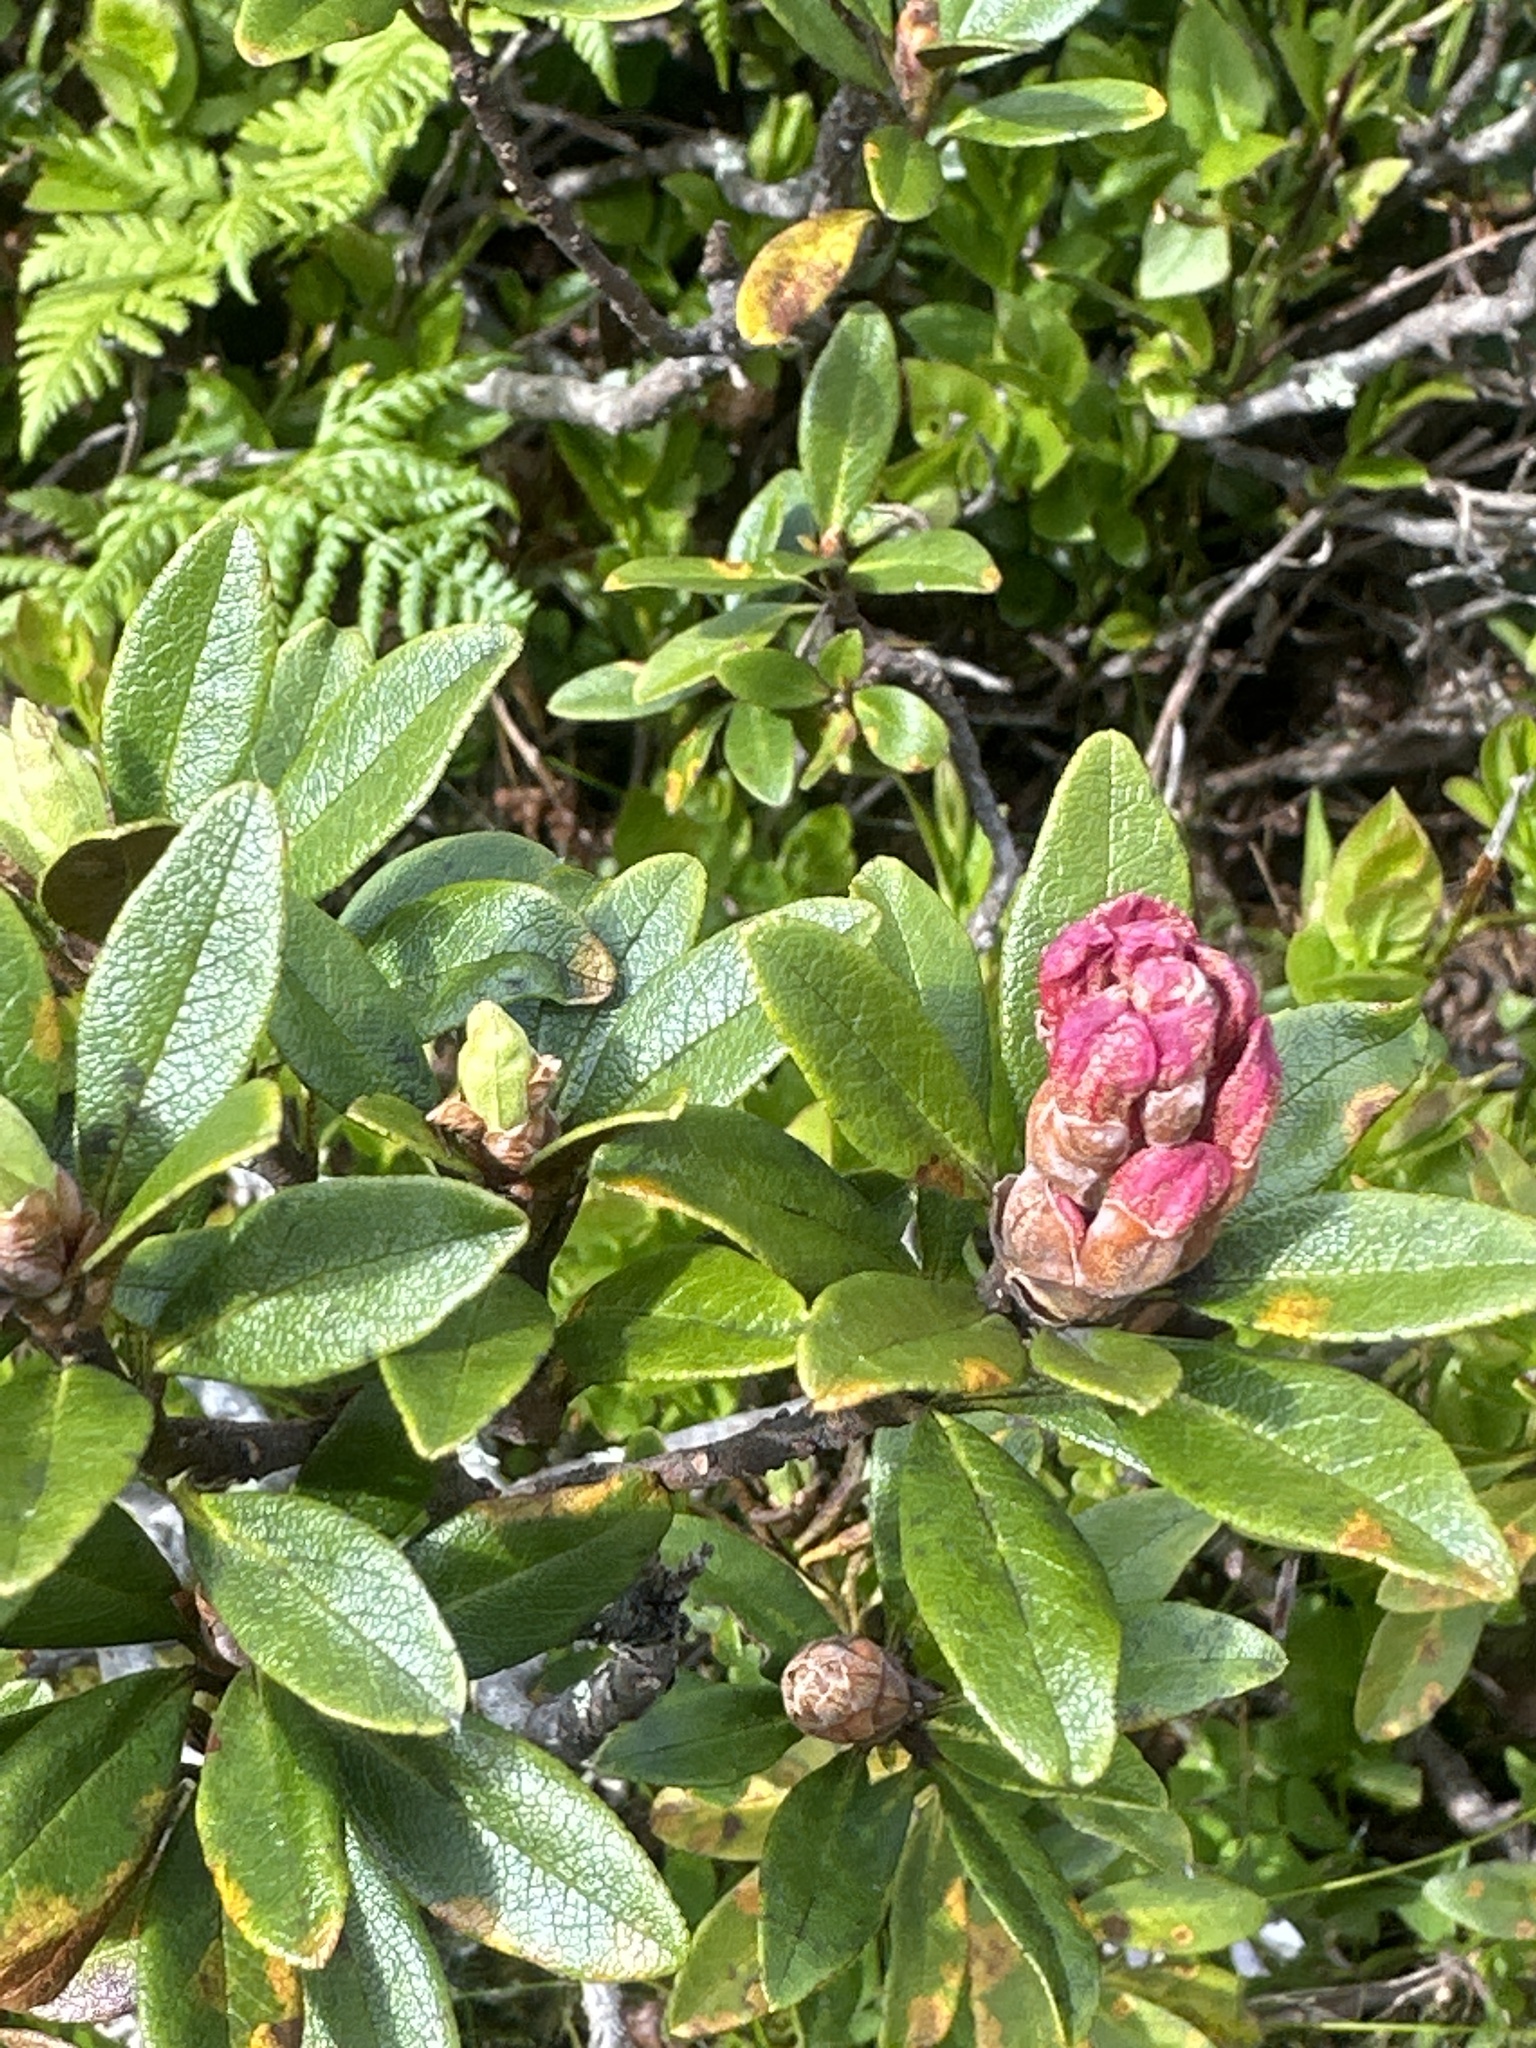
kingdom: Plantae
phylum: Tracheophyta
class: Magnoliopsida
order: Ericales
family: Ericaceae
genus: Rhododendron
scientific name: Rhododendron ferrugineum
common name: Alpenrose
